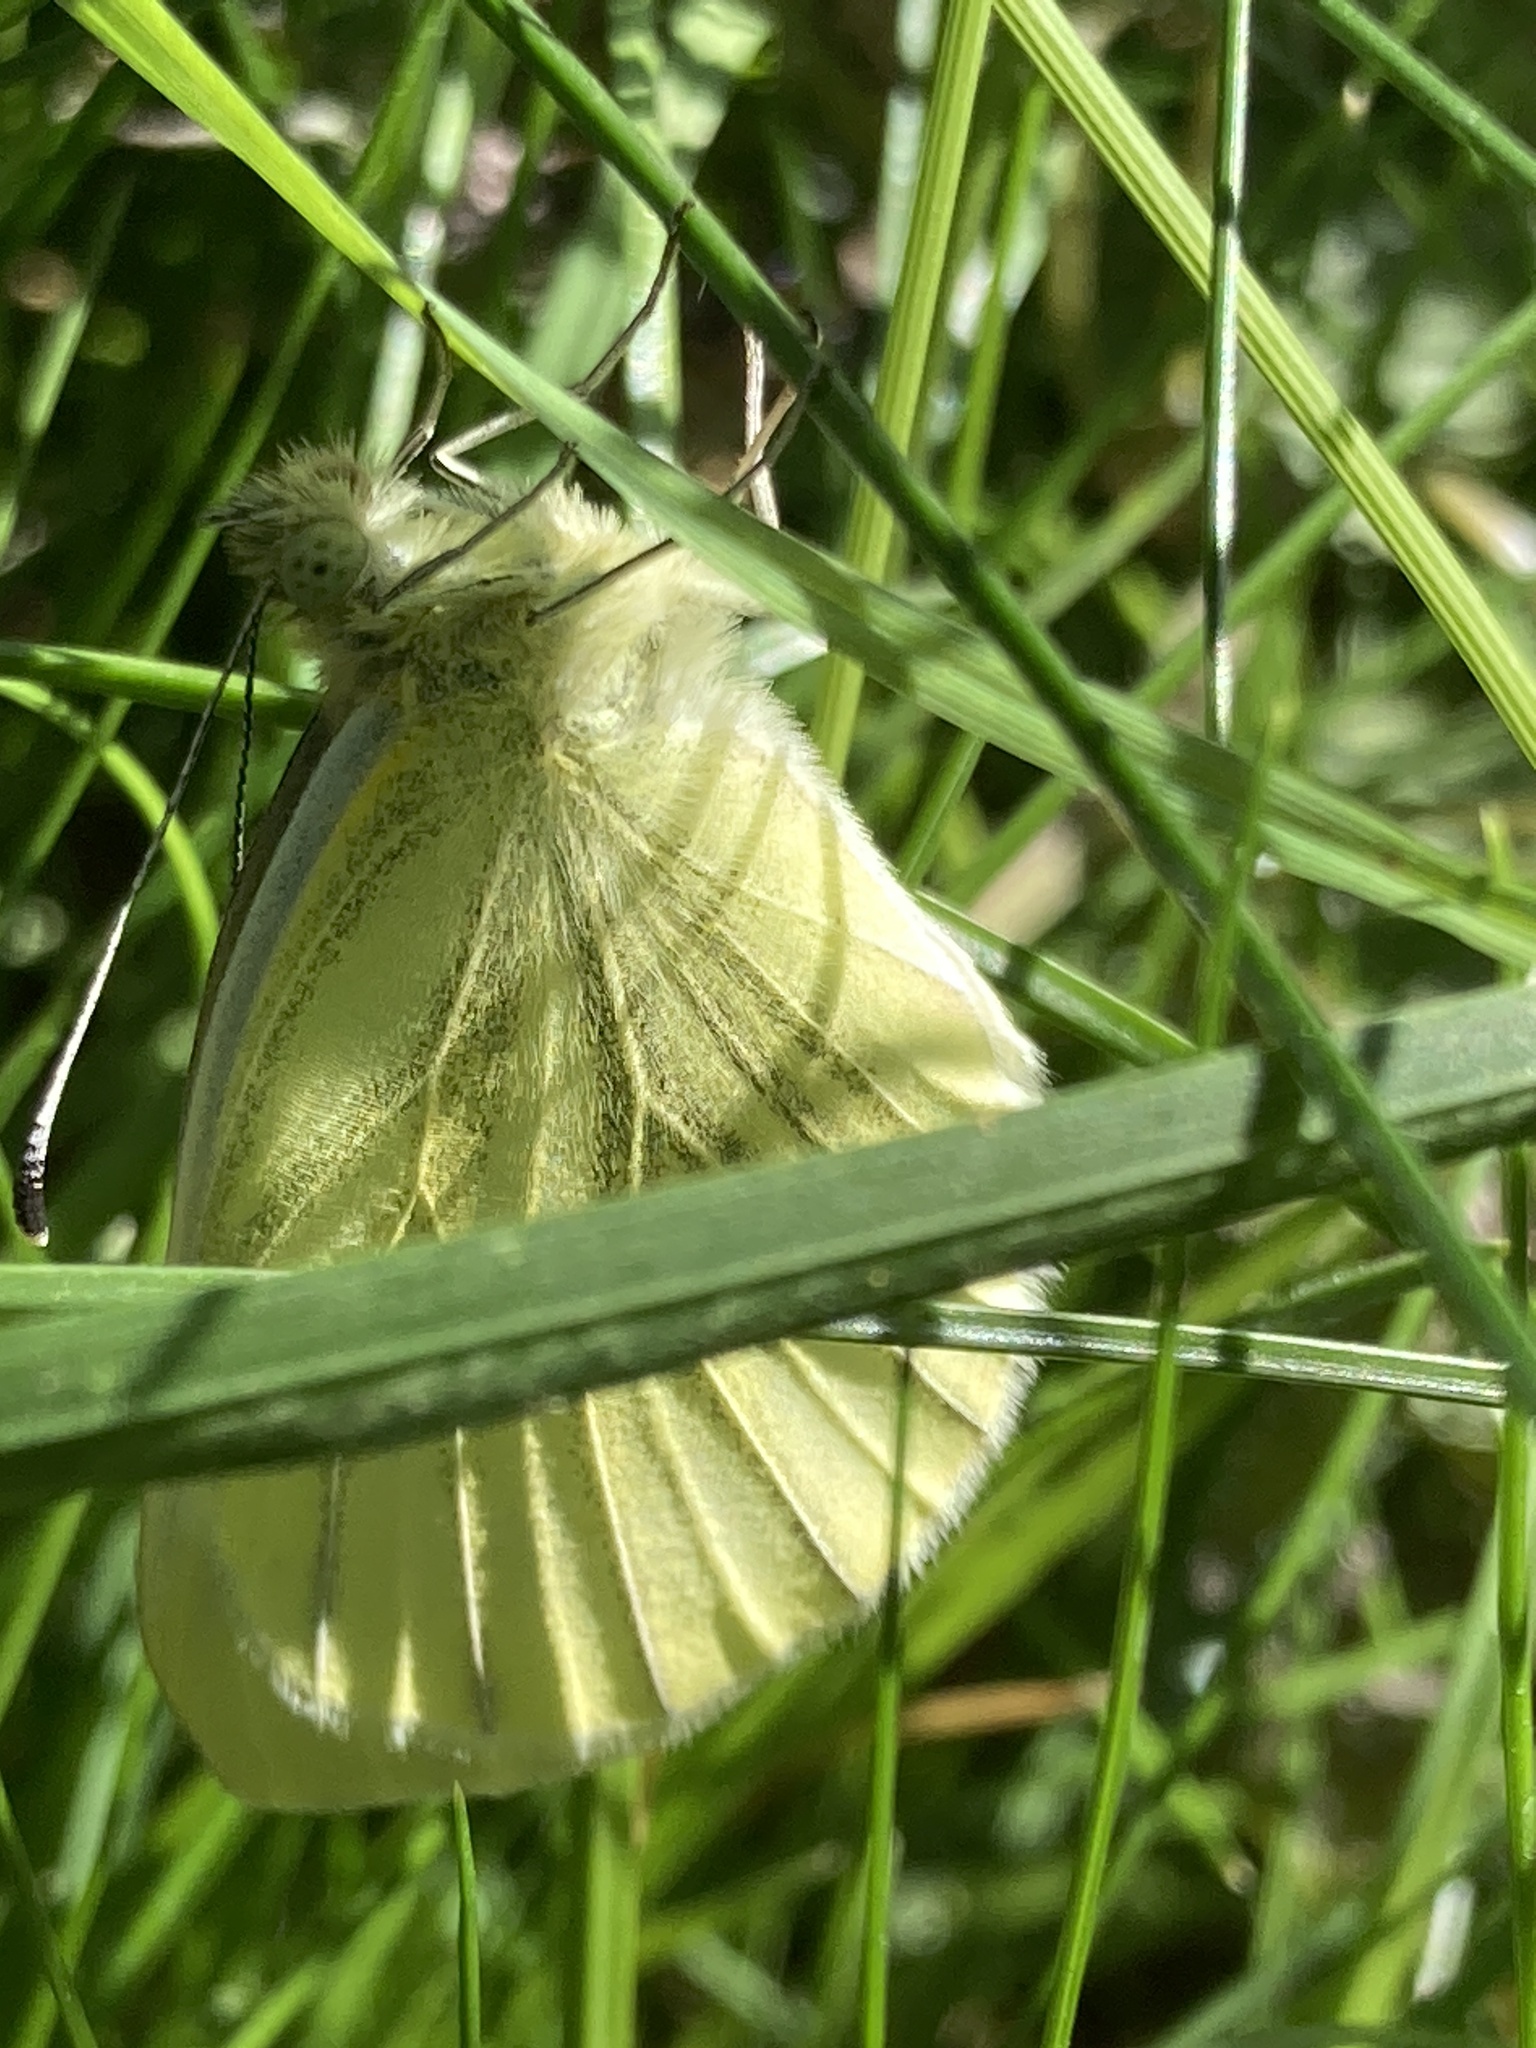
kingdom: Animalia
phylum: Arthropoda
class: Insecta
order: Lepidoptera
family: Pieridae
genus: Pieris
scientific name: Pieris napi
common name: Green-veined white
